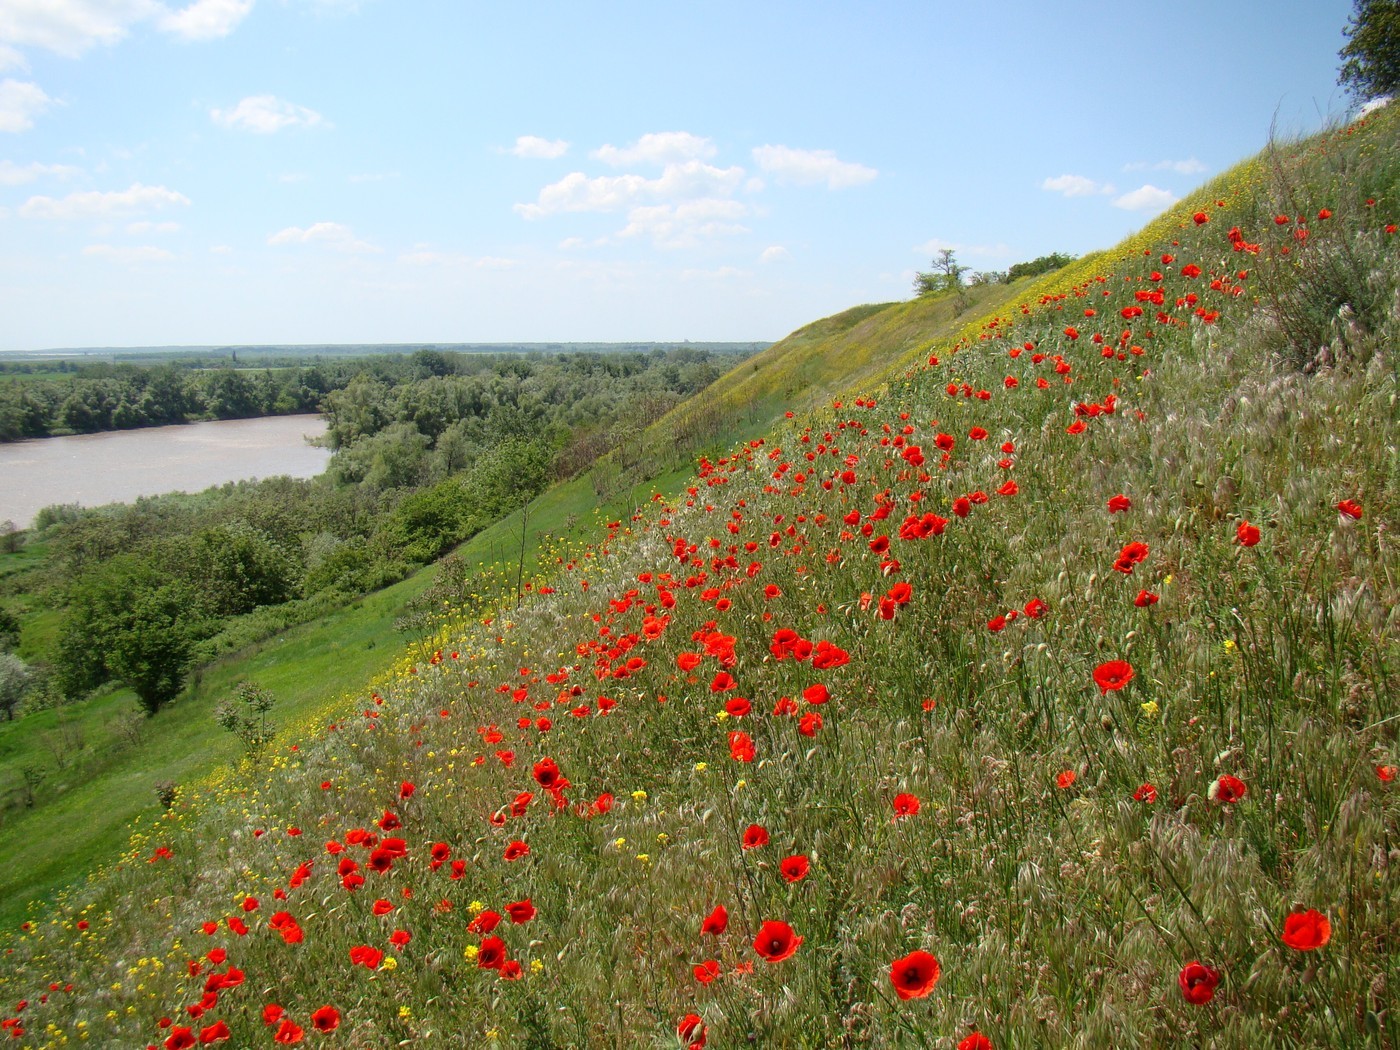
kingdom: Plantae
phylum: Tracheophyta
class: Magnoliopsida
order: Ranunculales
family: Papaveraceae
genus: Papaver
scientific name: Papaver rhoeas
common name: Corn poppy
